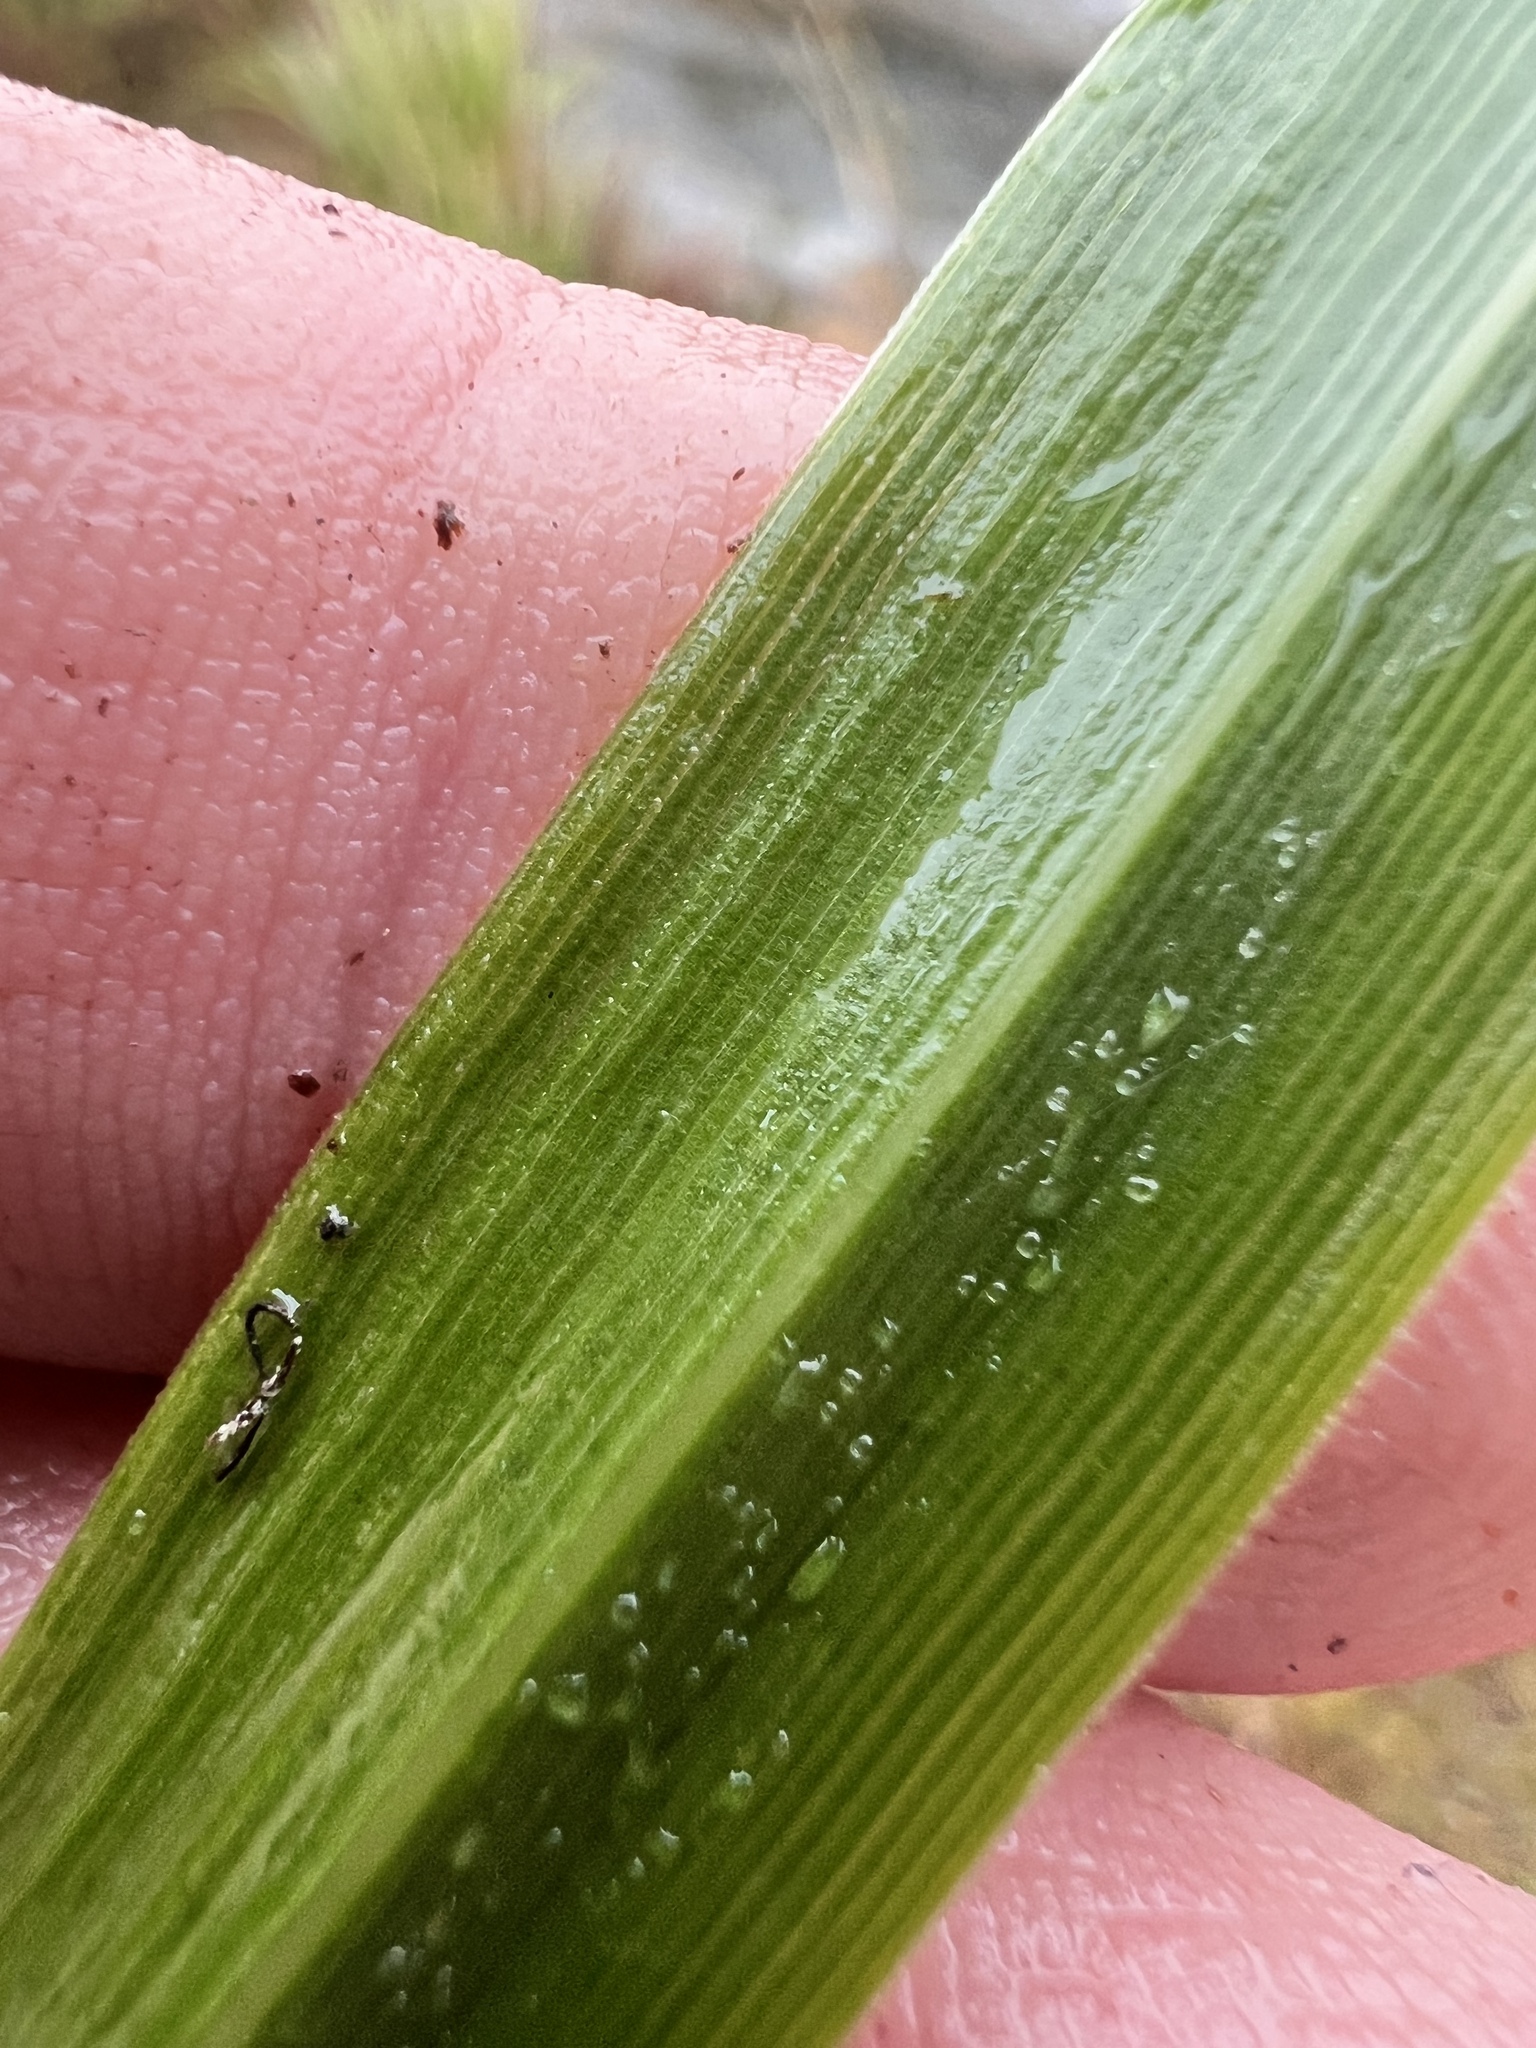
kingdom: Plantae
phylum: Tracheophyta
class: Liliopsida
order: Poales
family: Poaceae
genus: Austroderia
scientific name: Austroderia fulvida
